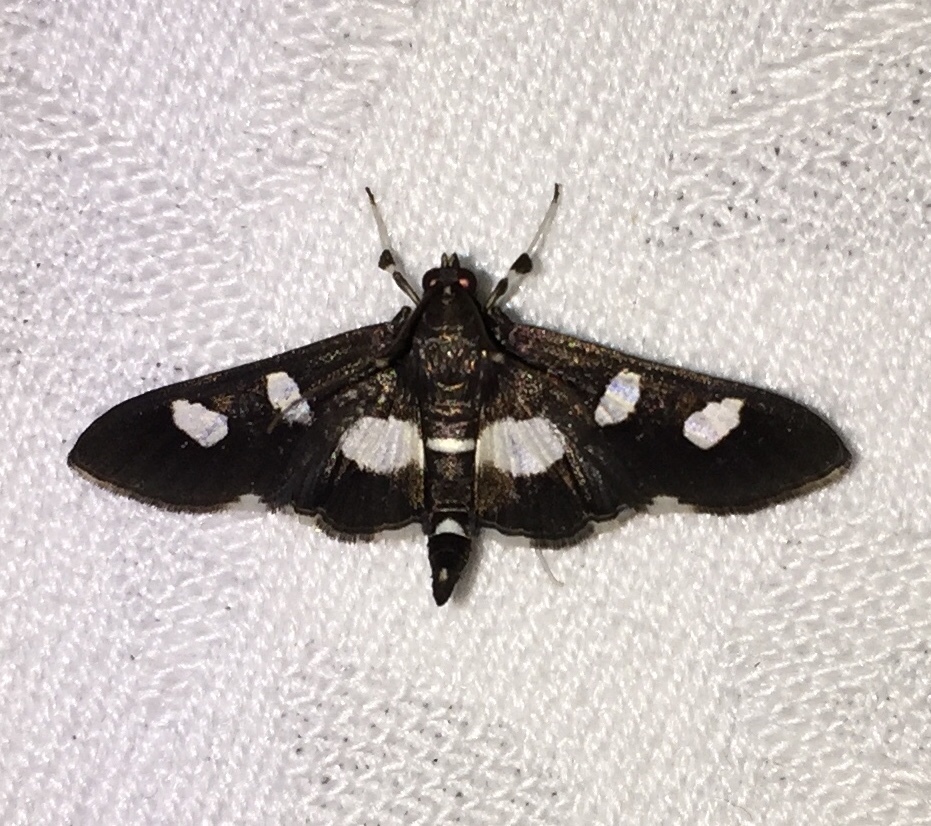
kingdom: Animalia
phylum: Arthropoda
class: Insecta
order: Lepidoptera
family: Crambidae
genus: Desmia
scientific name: Desmia
